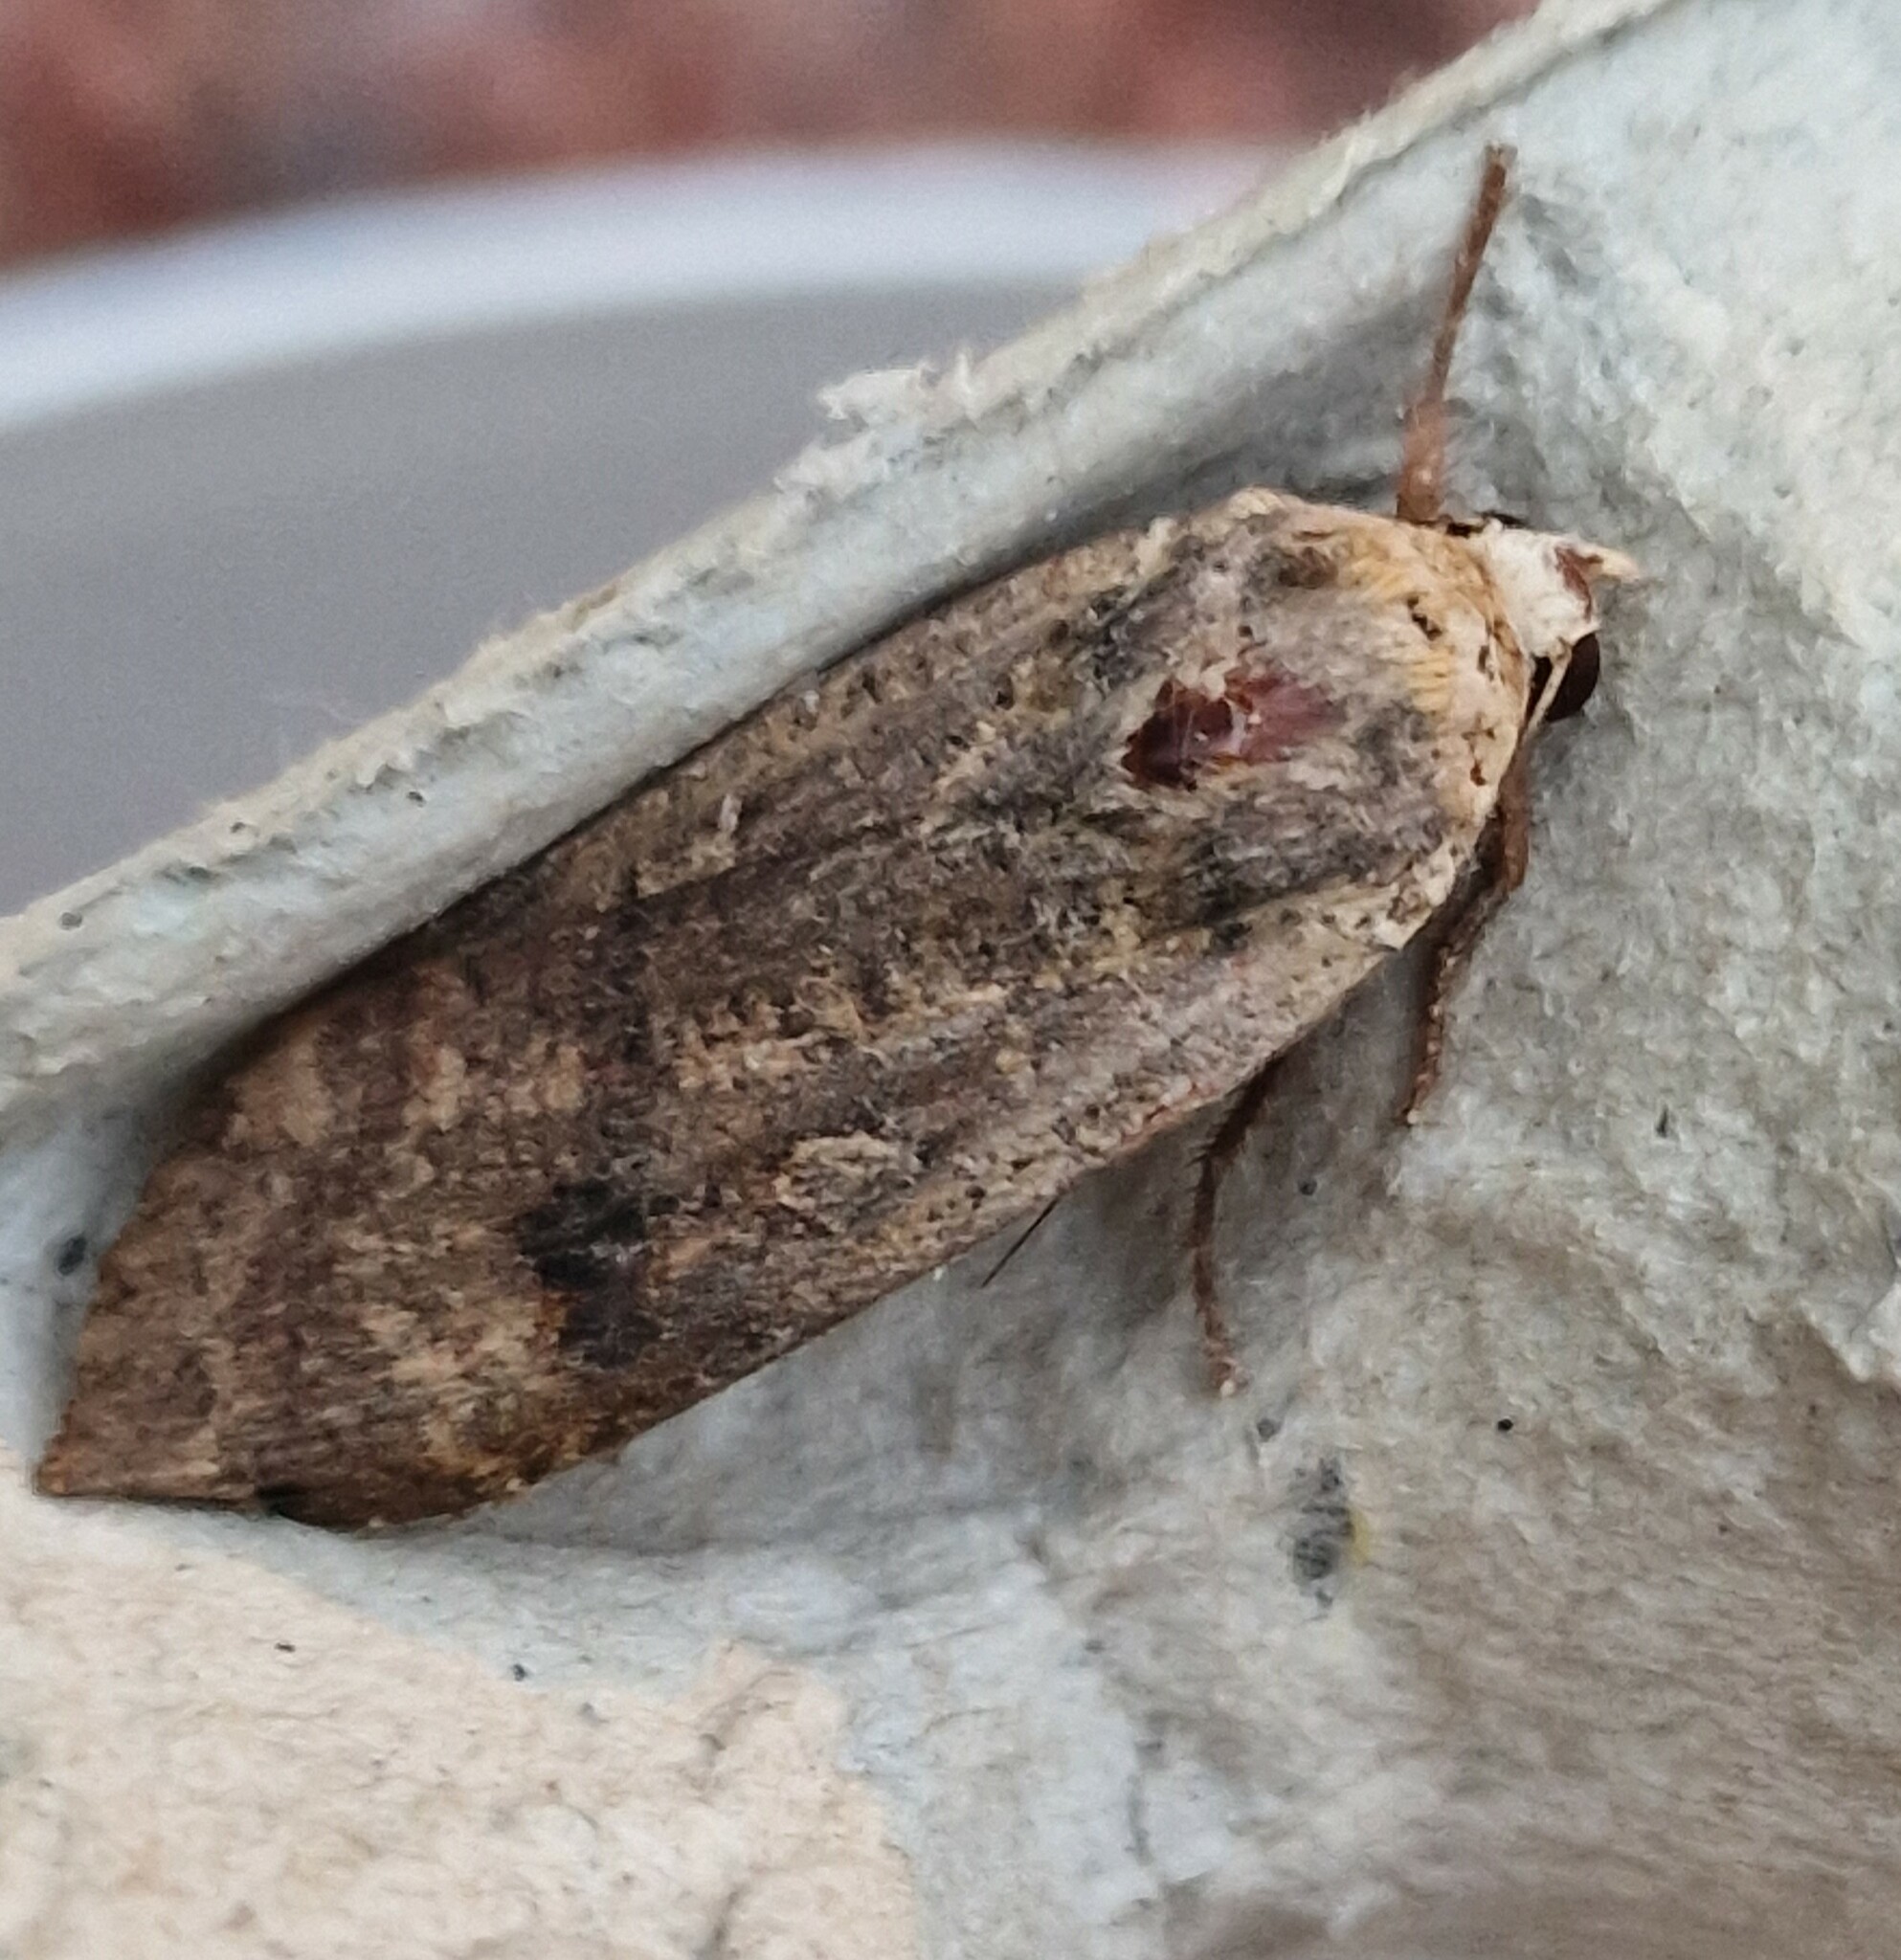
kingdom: Animalia
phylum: Arthropoda
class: Insecta
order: Lepidoptera
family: Noctuidae
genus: Noctua
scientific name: Noctua pronuba
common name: Large yellow underwing
